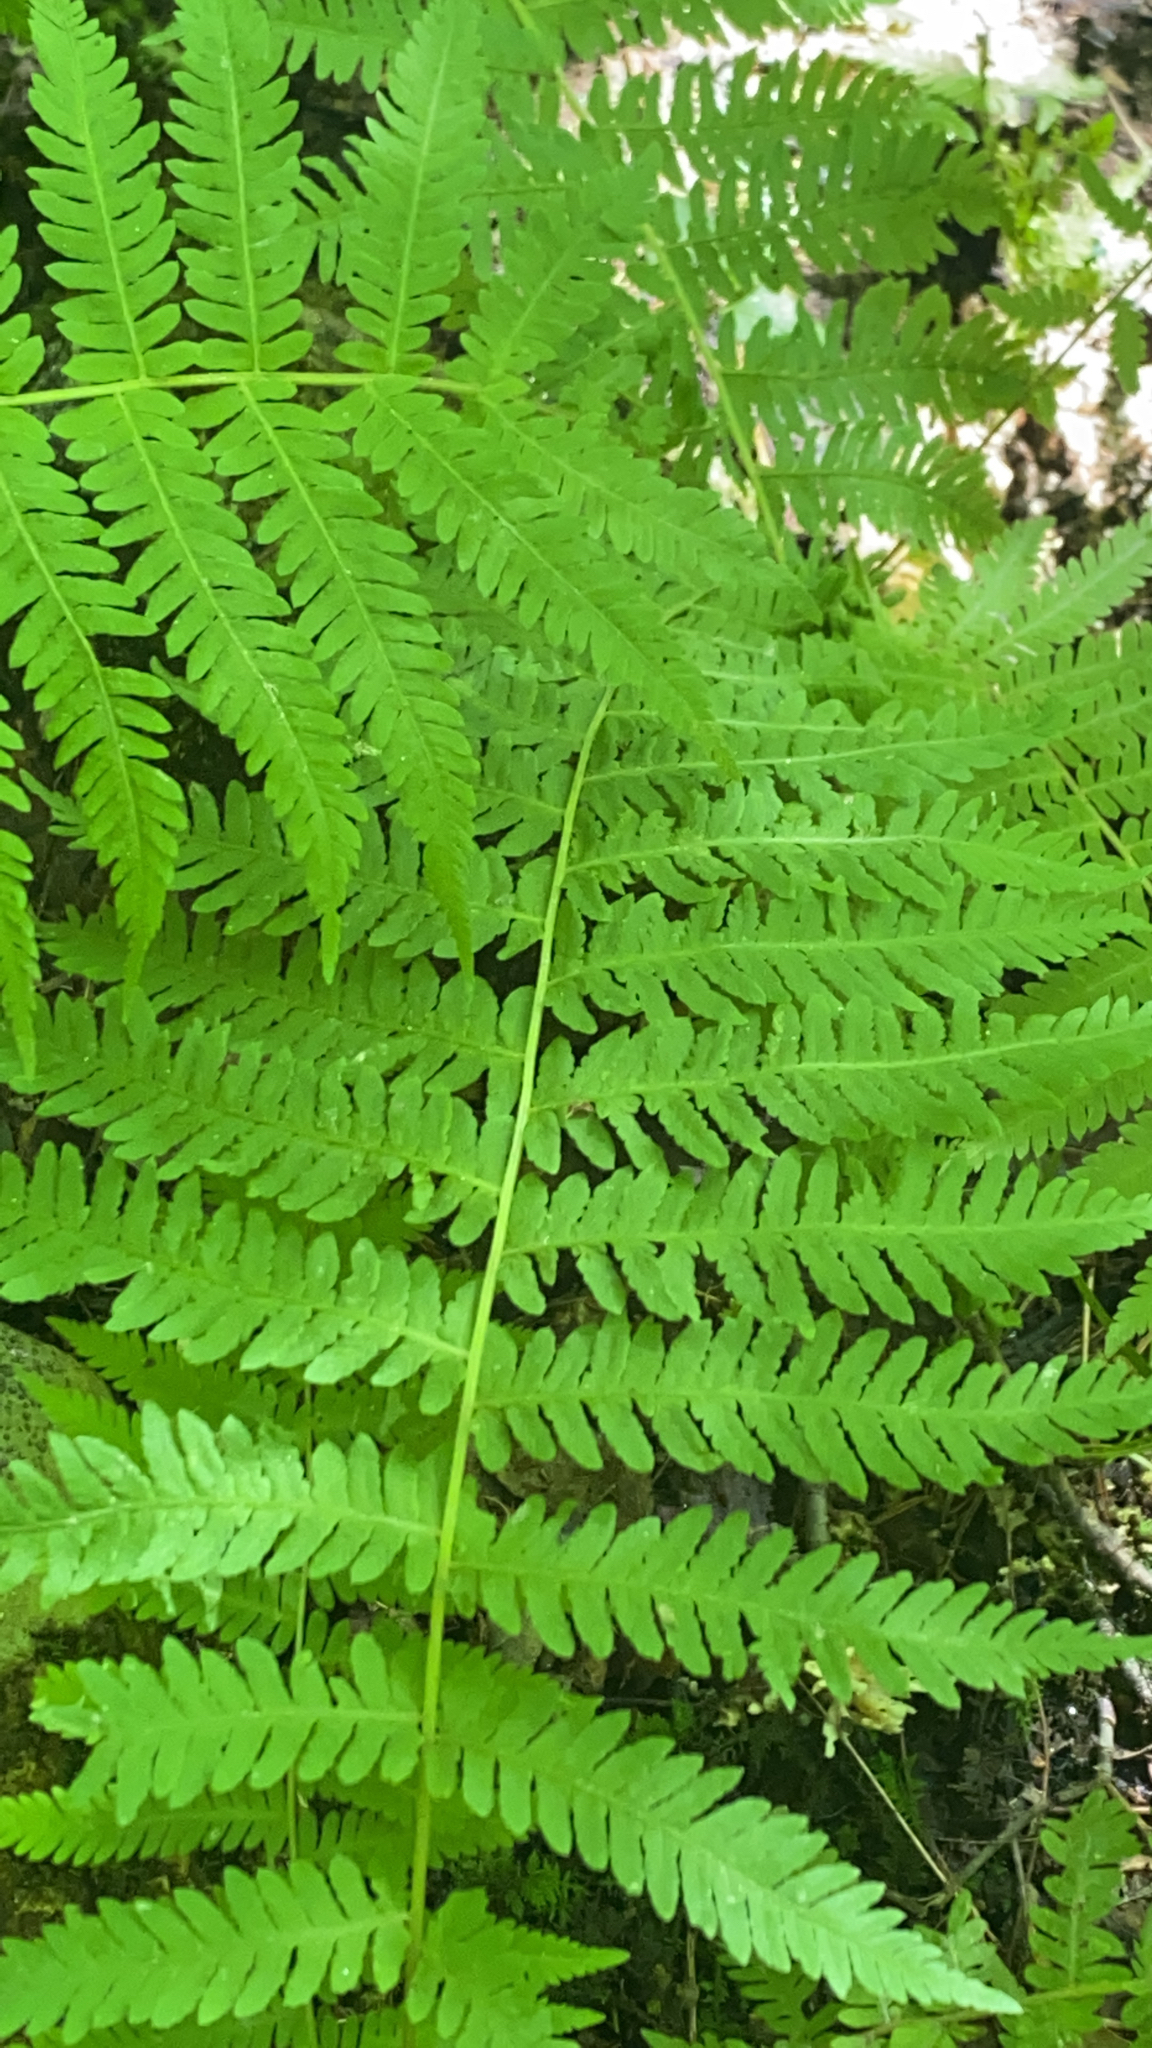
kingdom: Plantae
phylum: Tracheophyta
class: Polypodiopsida
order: Polypodiales
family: Thelypteridaceae
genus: Amauropelta
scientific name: Amauropelta noveboracensis
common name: New york fern
